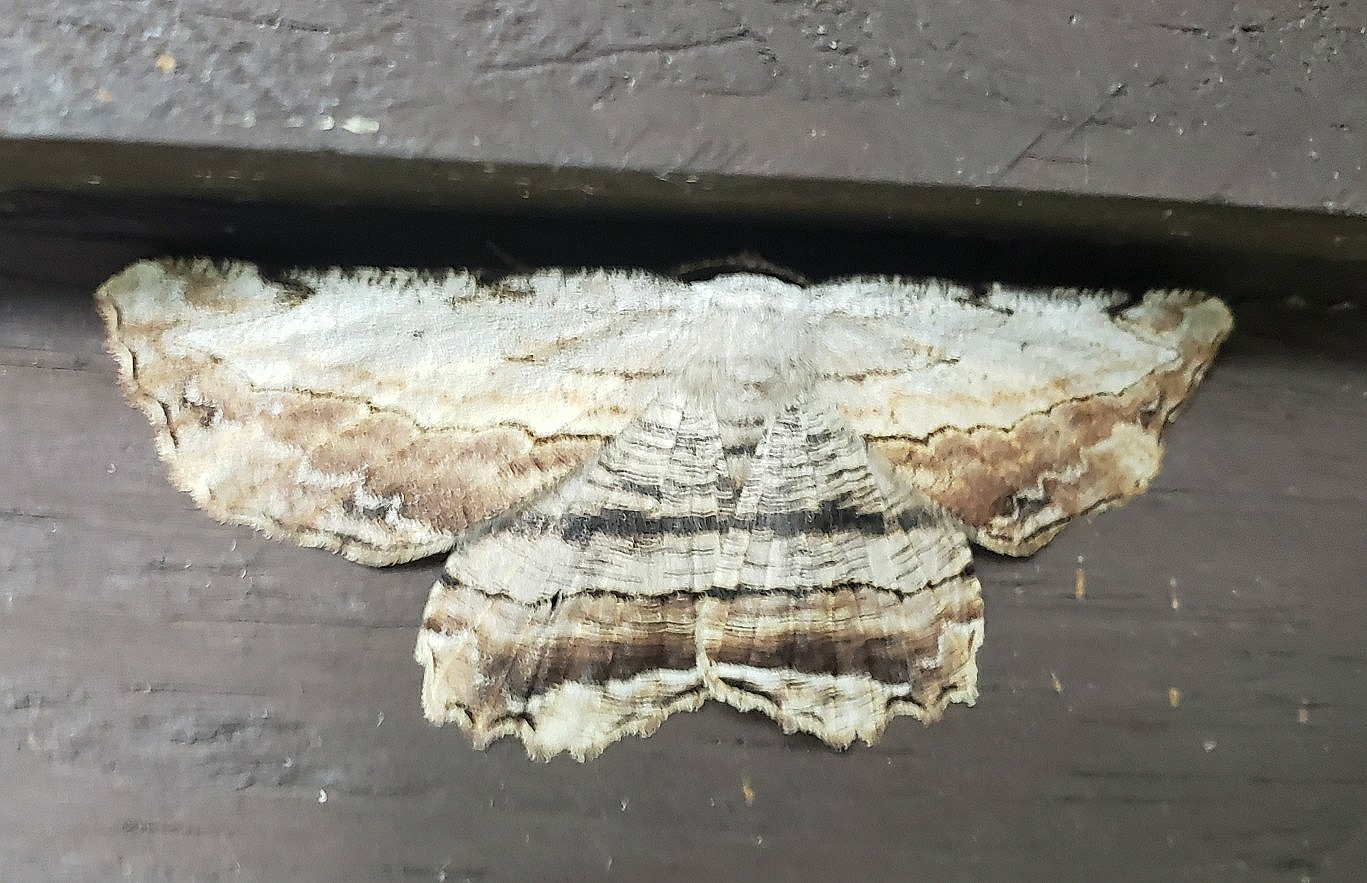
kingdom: Animalia
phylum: Arthropoda
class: Insecta
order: Lepidoptera
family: Geometridae
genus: Lytrosis
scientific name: Lytrosis unitaria
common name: Common lytrosis
